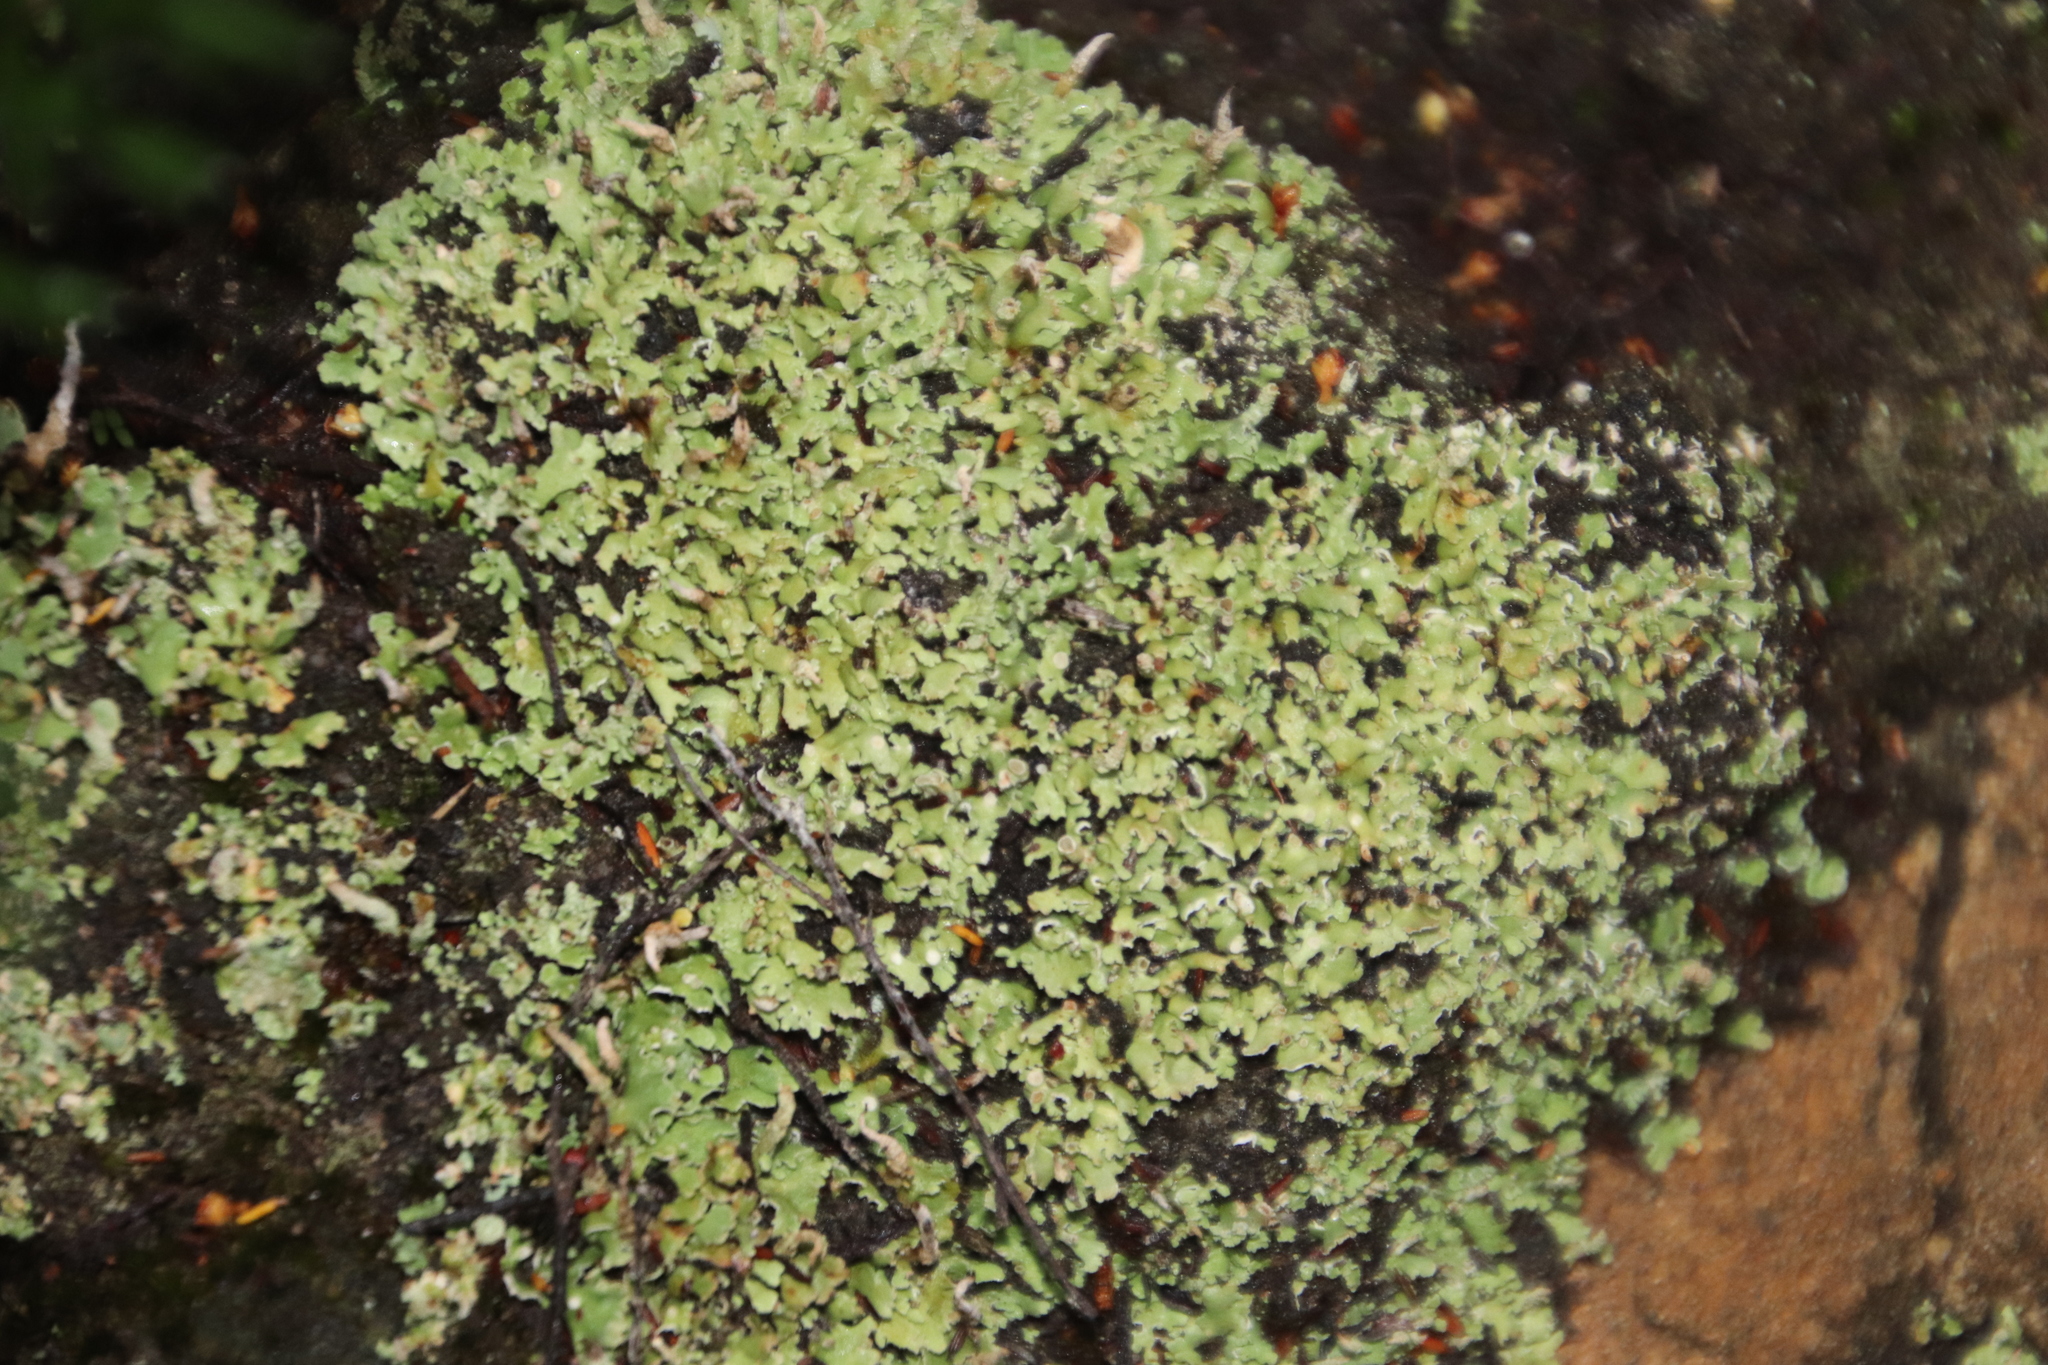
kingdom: Fungi
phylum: Ascomycota
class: Lecanoromycetes
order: Lecanorales
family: Cladoniaceae
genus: Cladonia
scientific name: Cladonia ochrochlora
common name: Smooth-footed powderhorn
